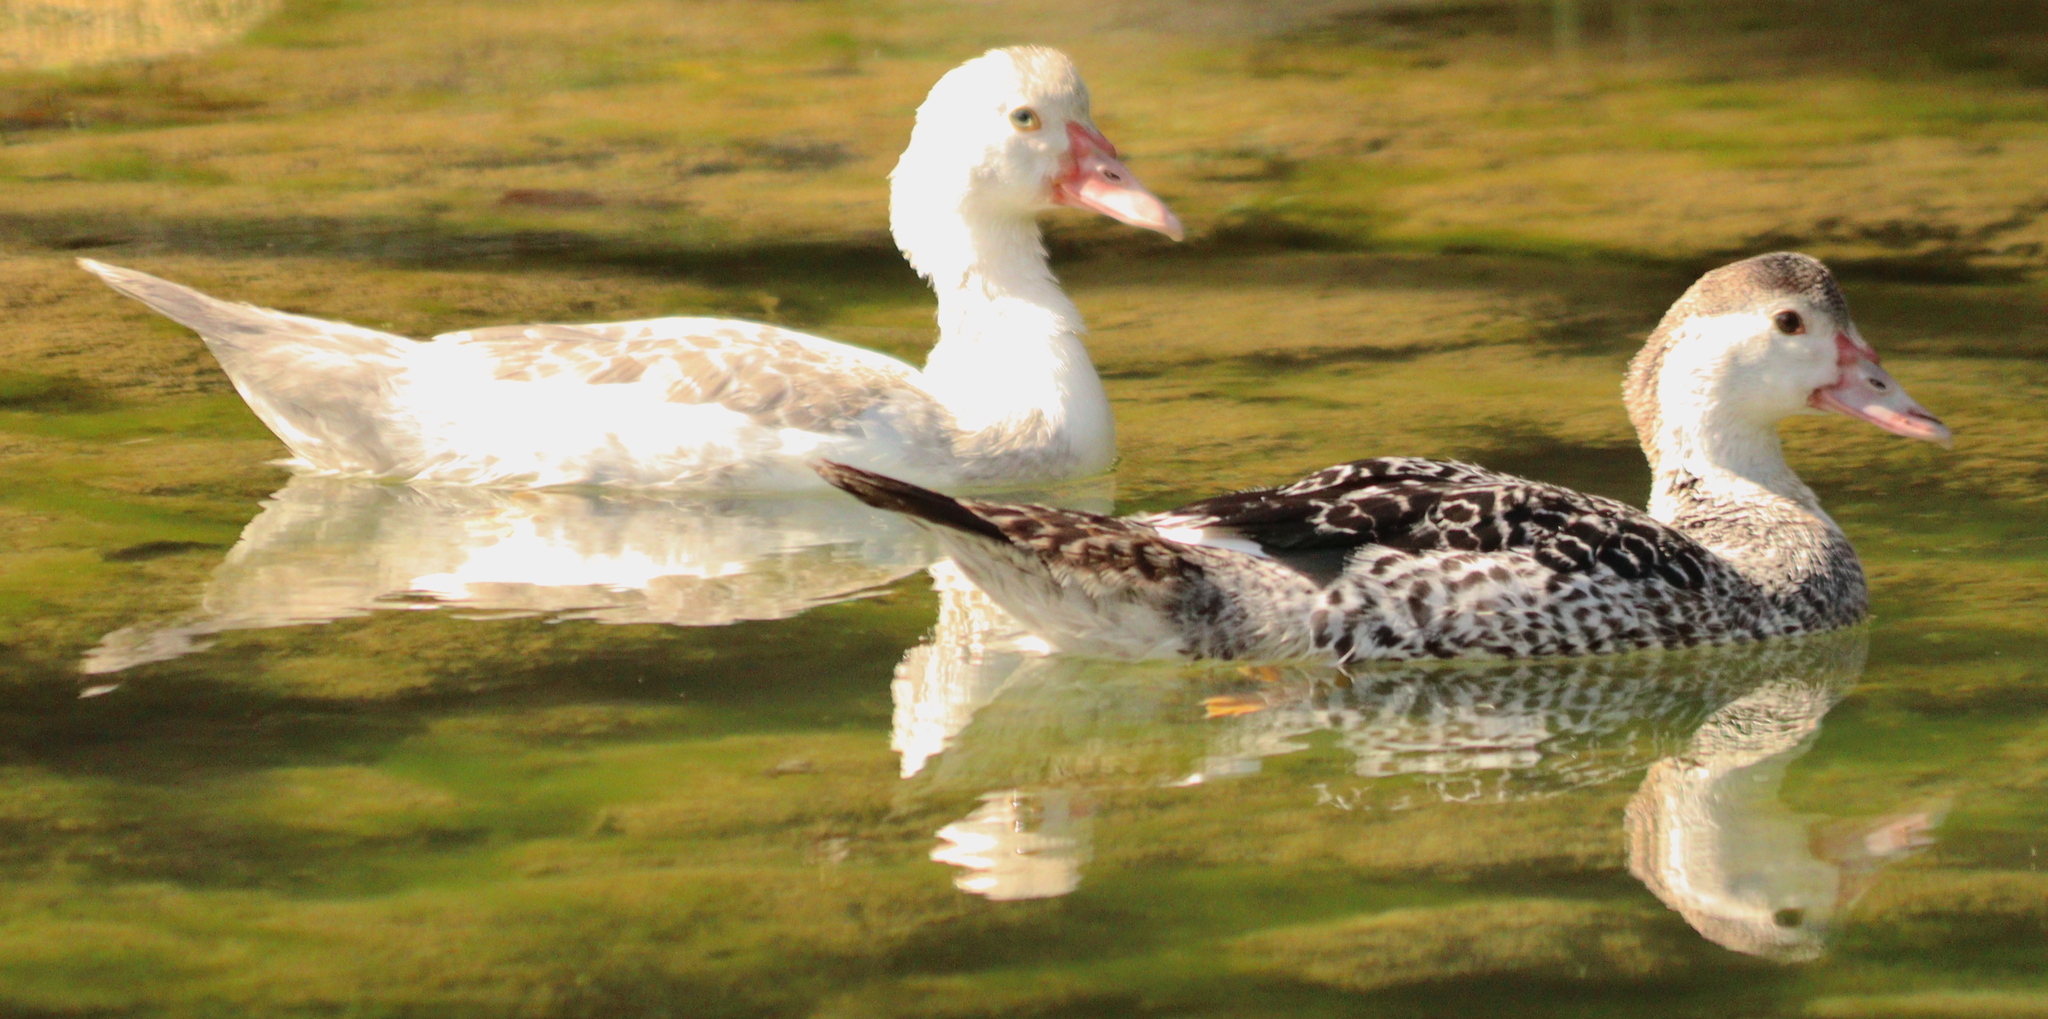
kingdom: Animalia
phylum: Chordata
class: Aves
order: Anseriformes
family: Anatidae
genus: Cairina
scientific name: Cairina moschata
